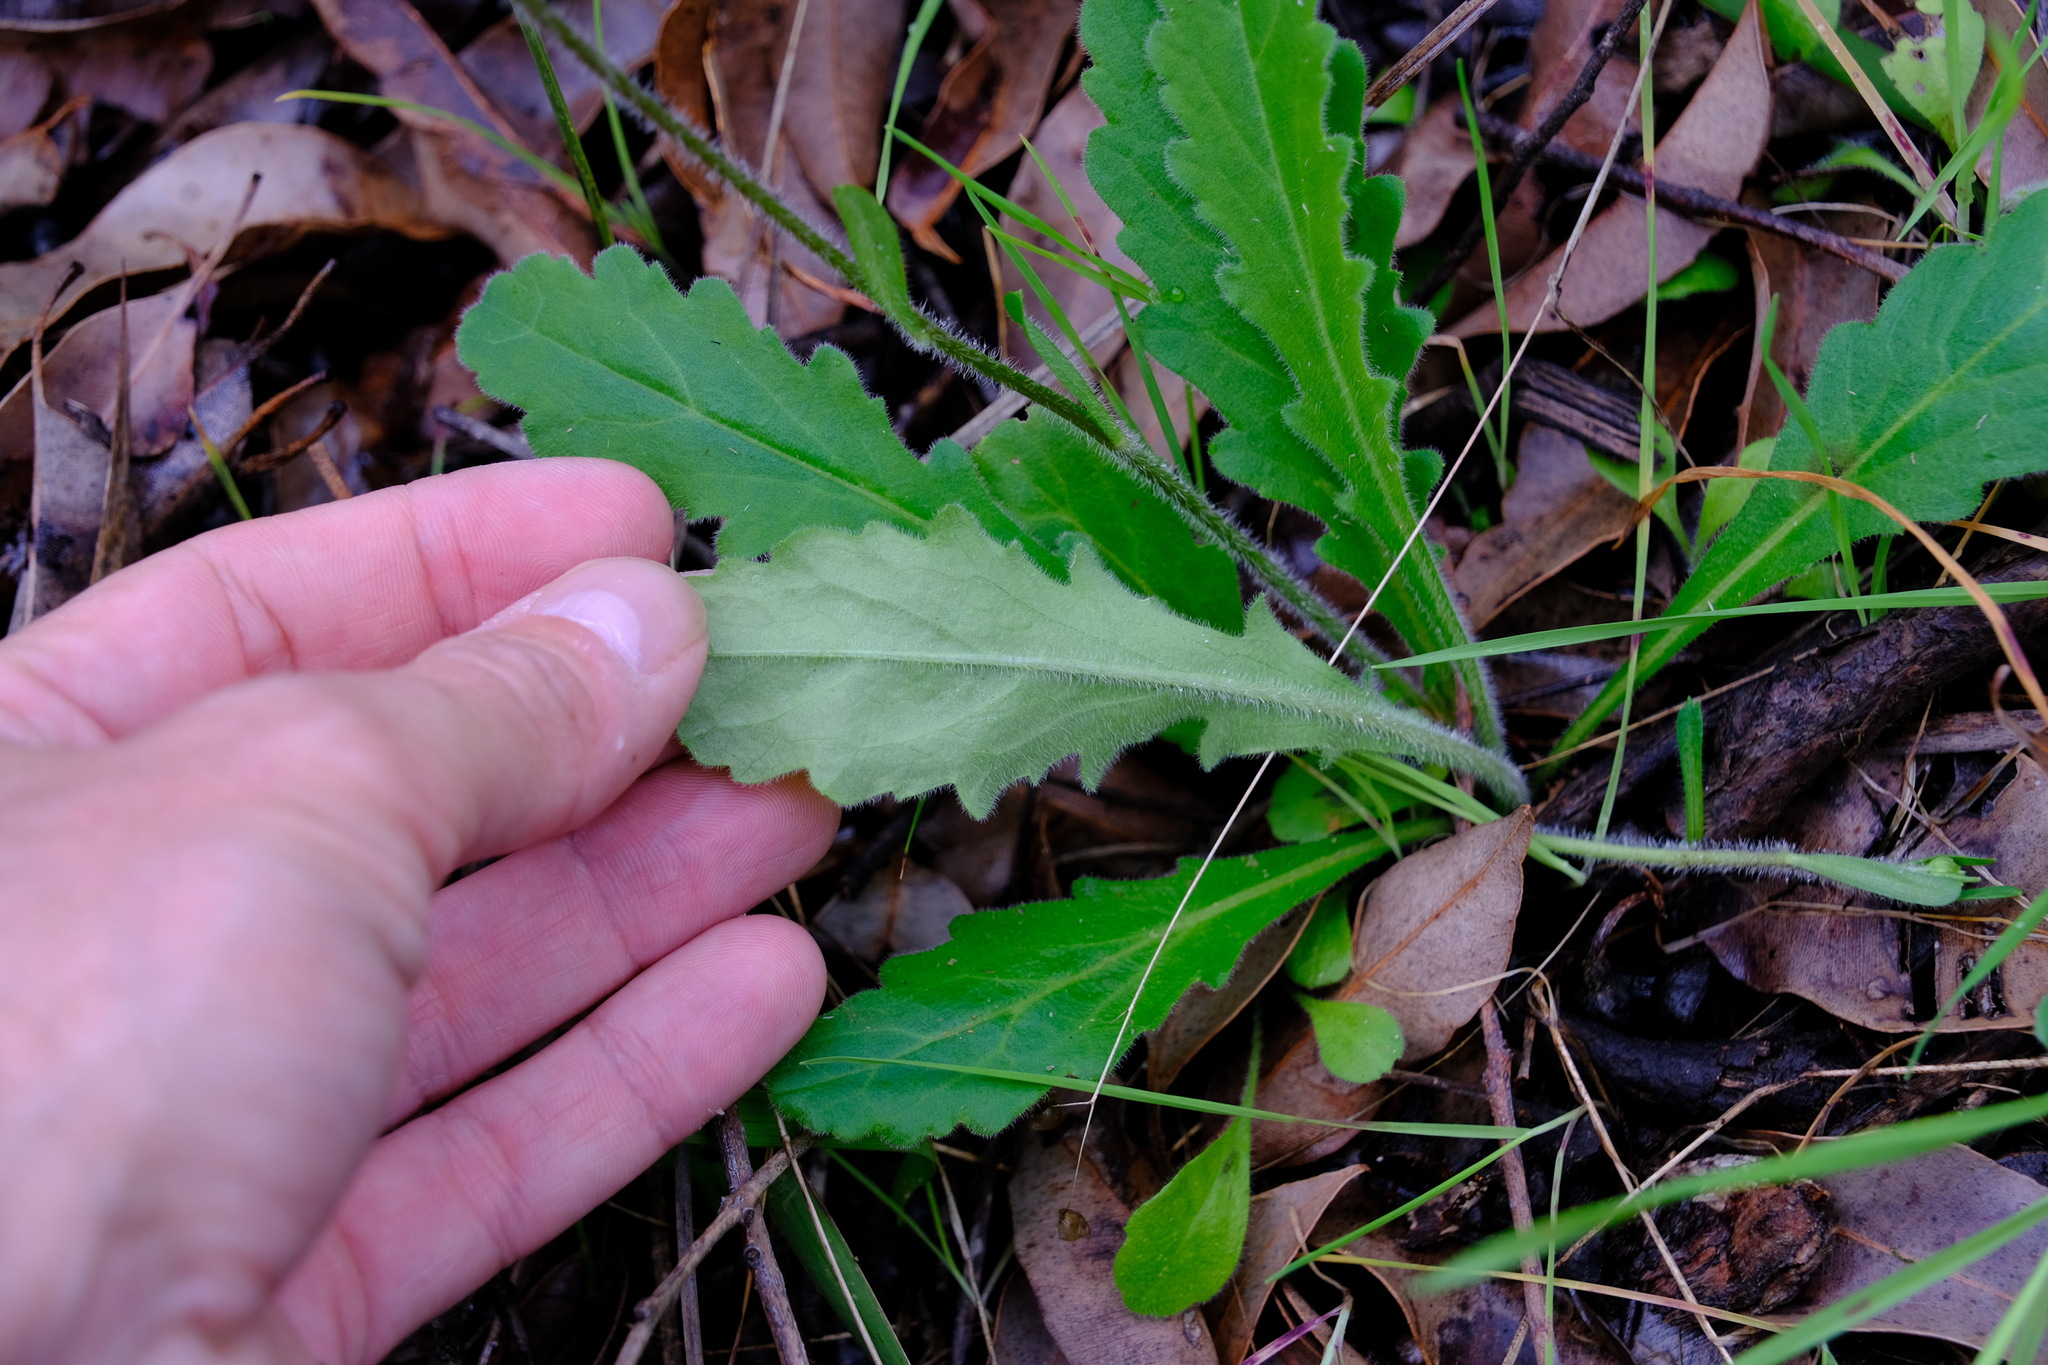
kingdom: Plantae
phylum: Tracheophyta
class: Magnoliopsida
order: Asterales
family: Asteraceae
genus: Lagenophora
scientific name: Lagenophora platysperma
